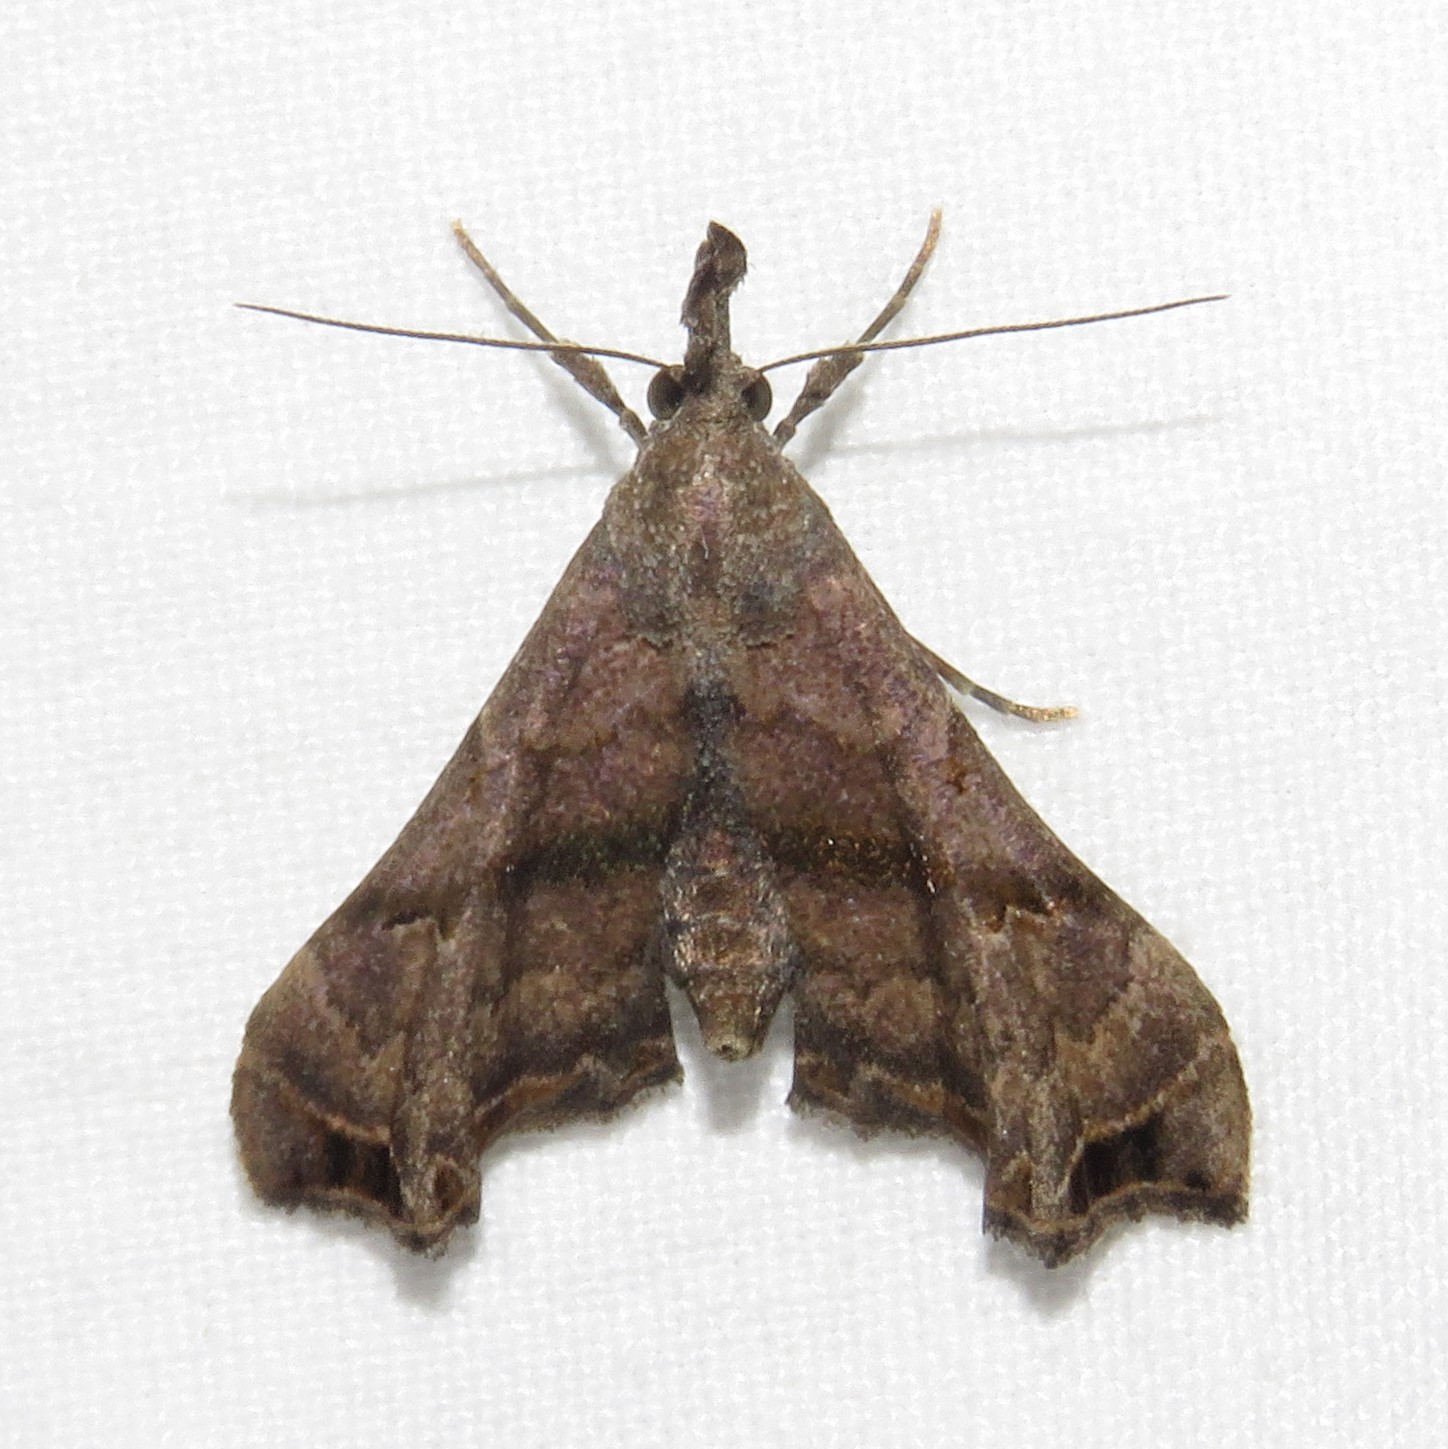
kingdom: Animalia
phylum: Arthropoda
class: Insecta
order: Lepidoptera
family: Erebidae
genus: Palthis
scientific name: Palthis asopialis
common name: Faint-spotted palthis moth
